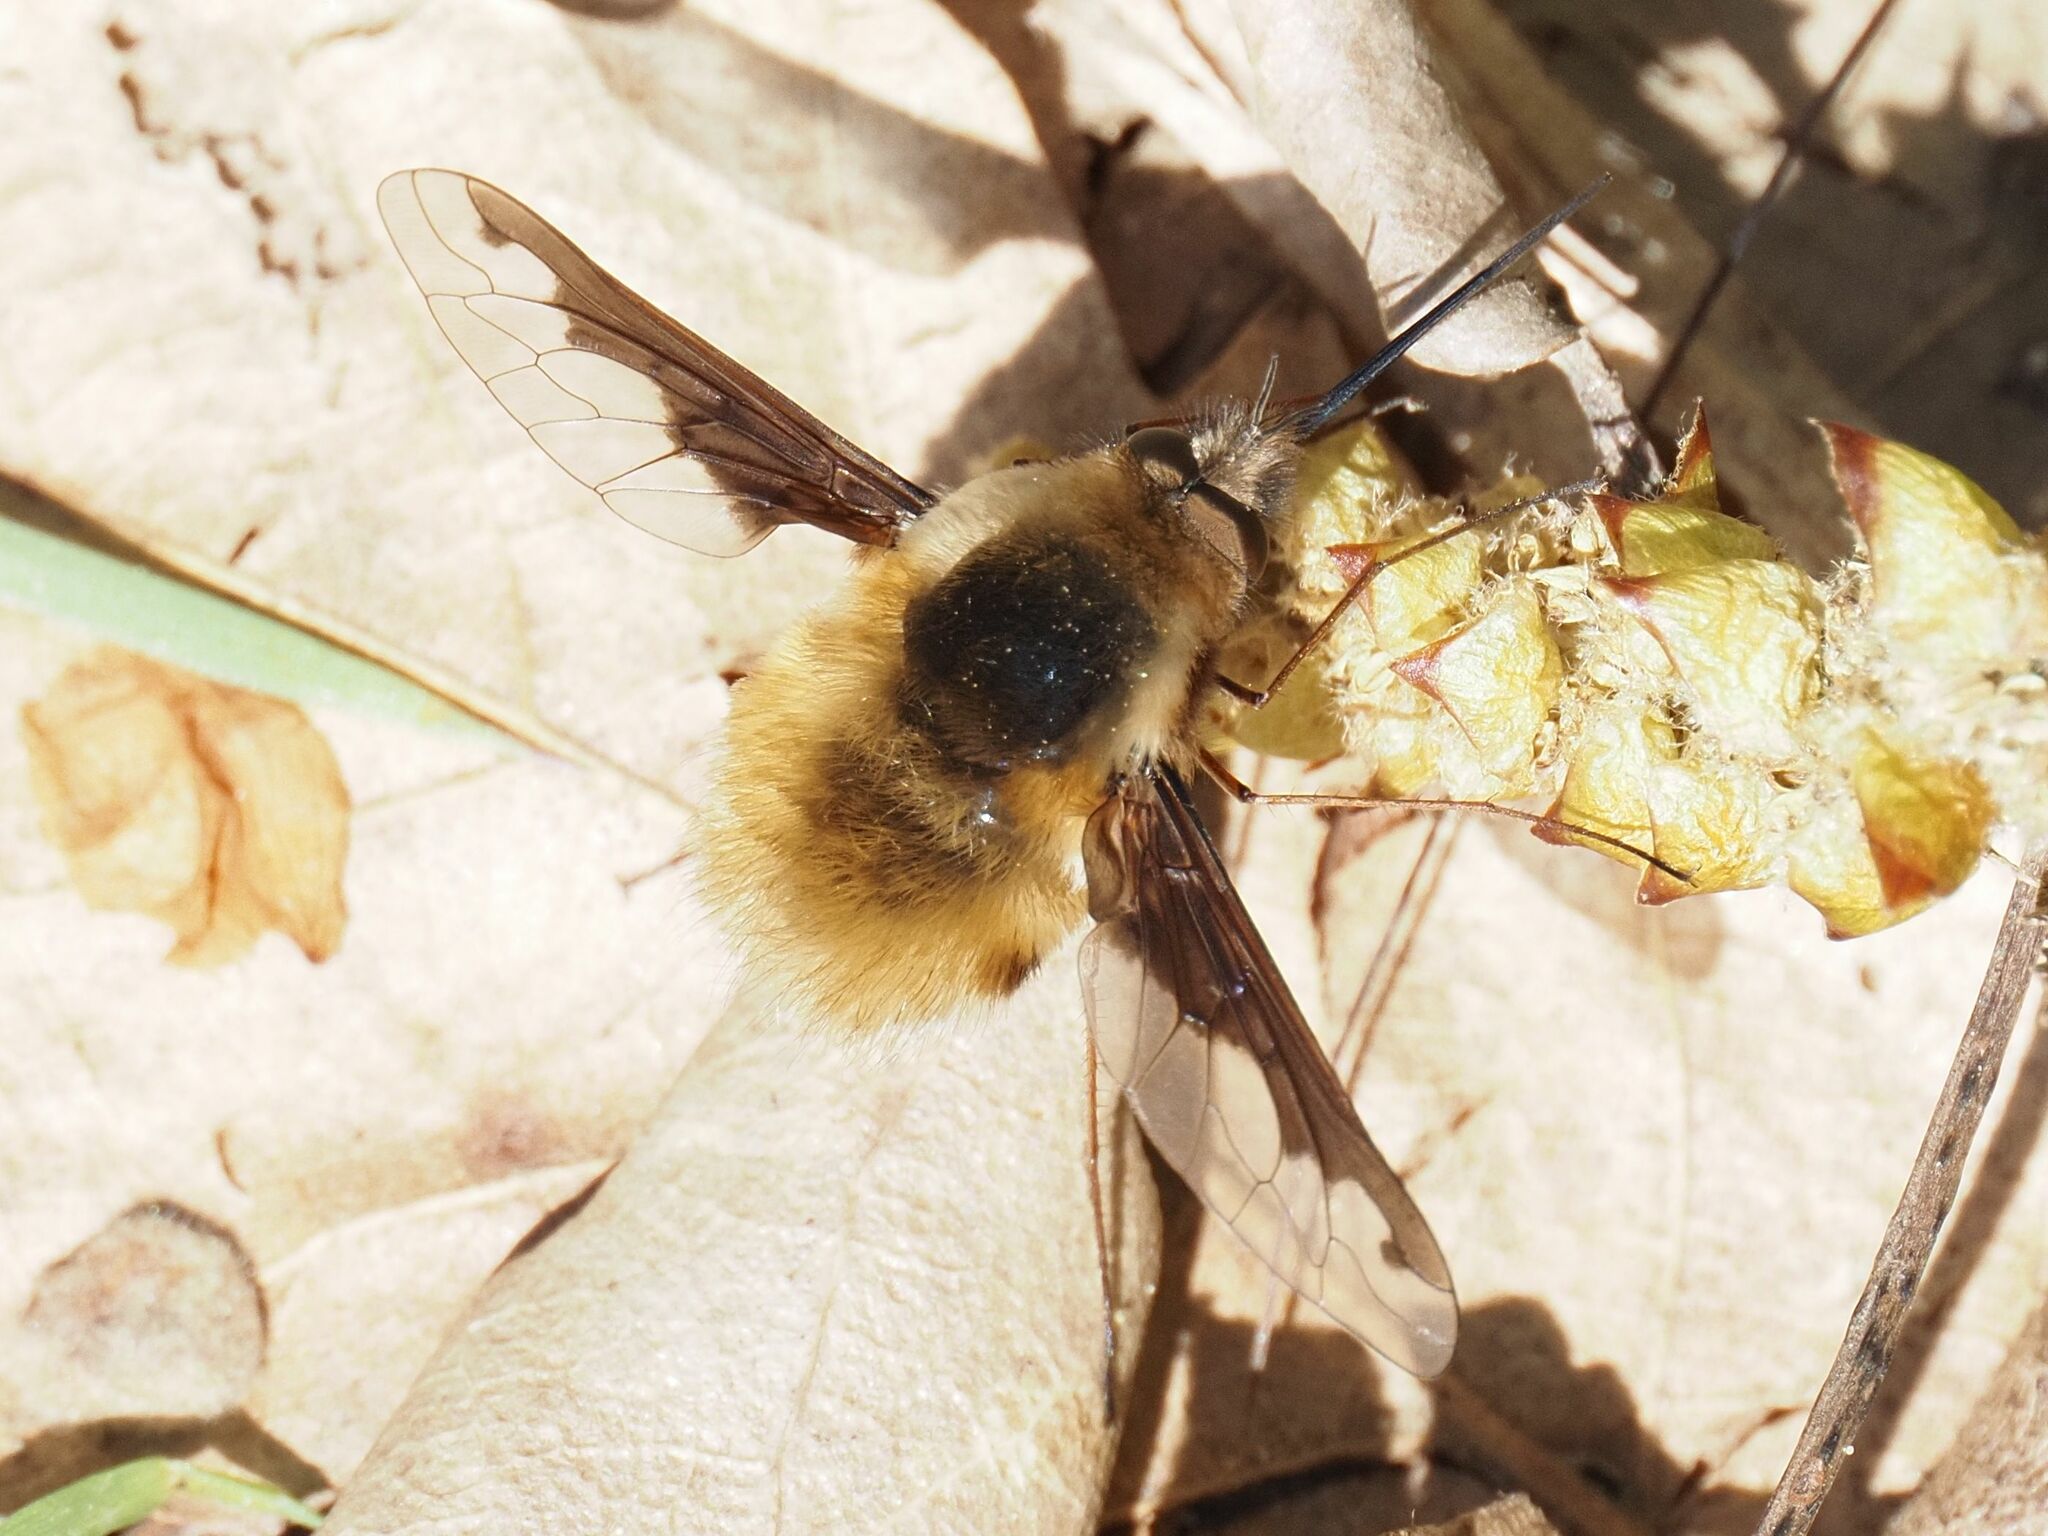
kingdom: Animalia
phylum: Arthropoda
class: Insecta
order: Diptera
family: Bombyliidae
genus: Bombylius
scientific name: Bombylius major
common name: Bee fly
